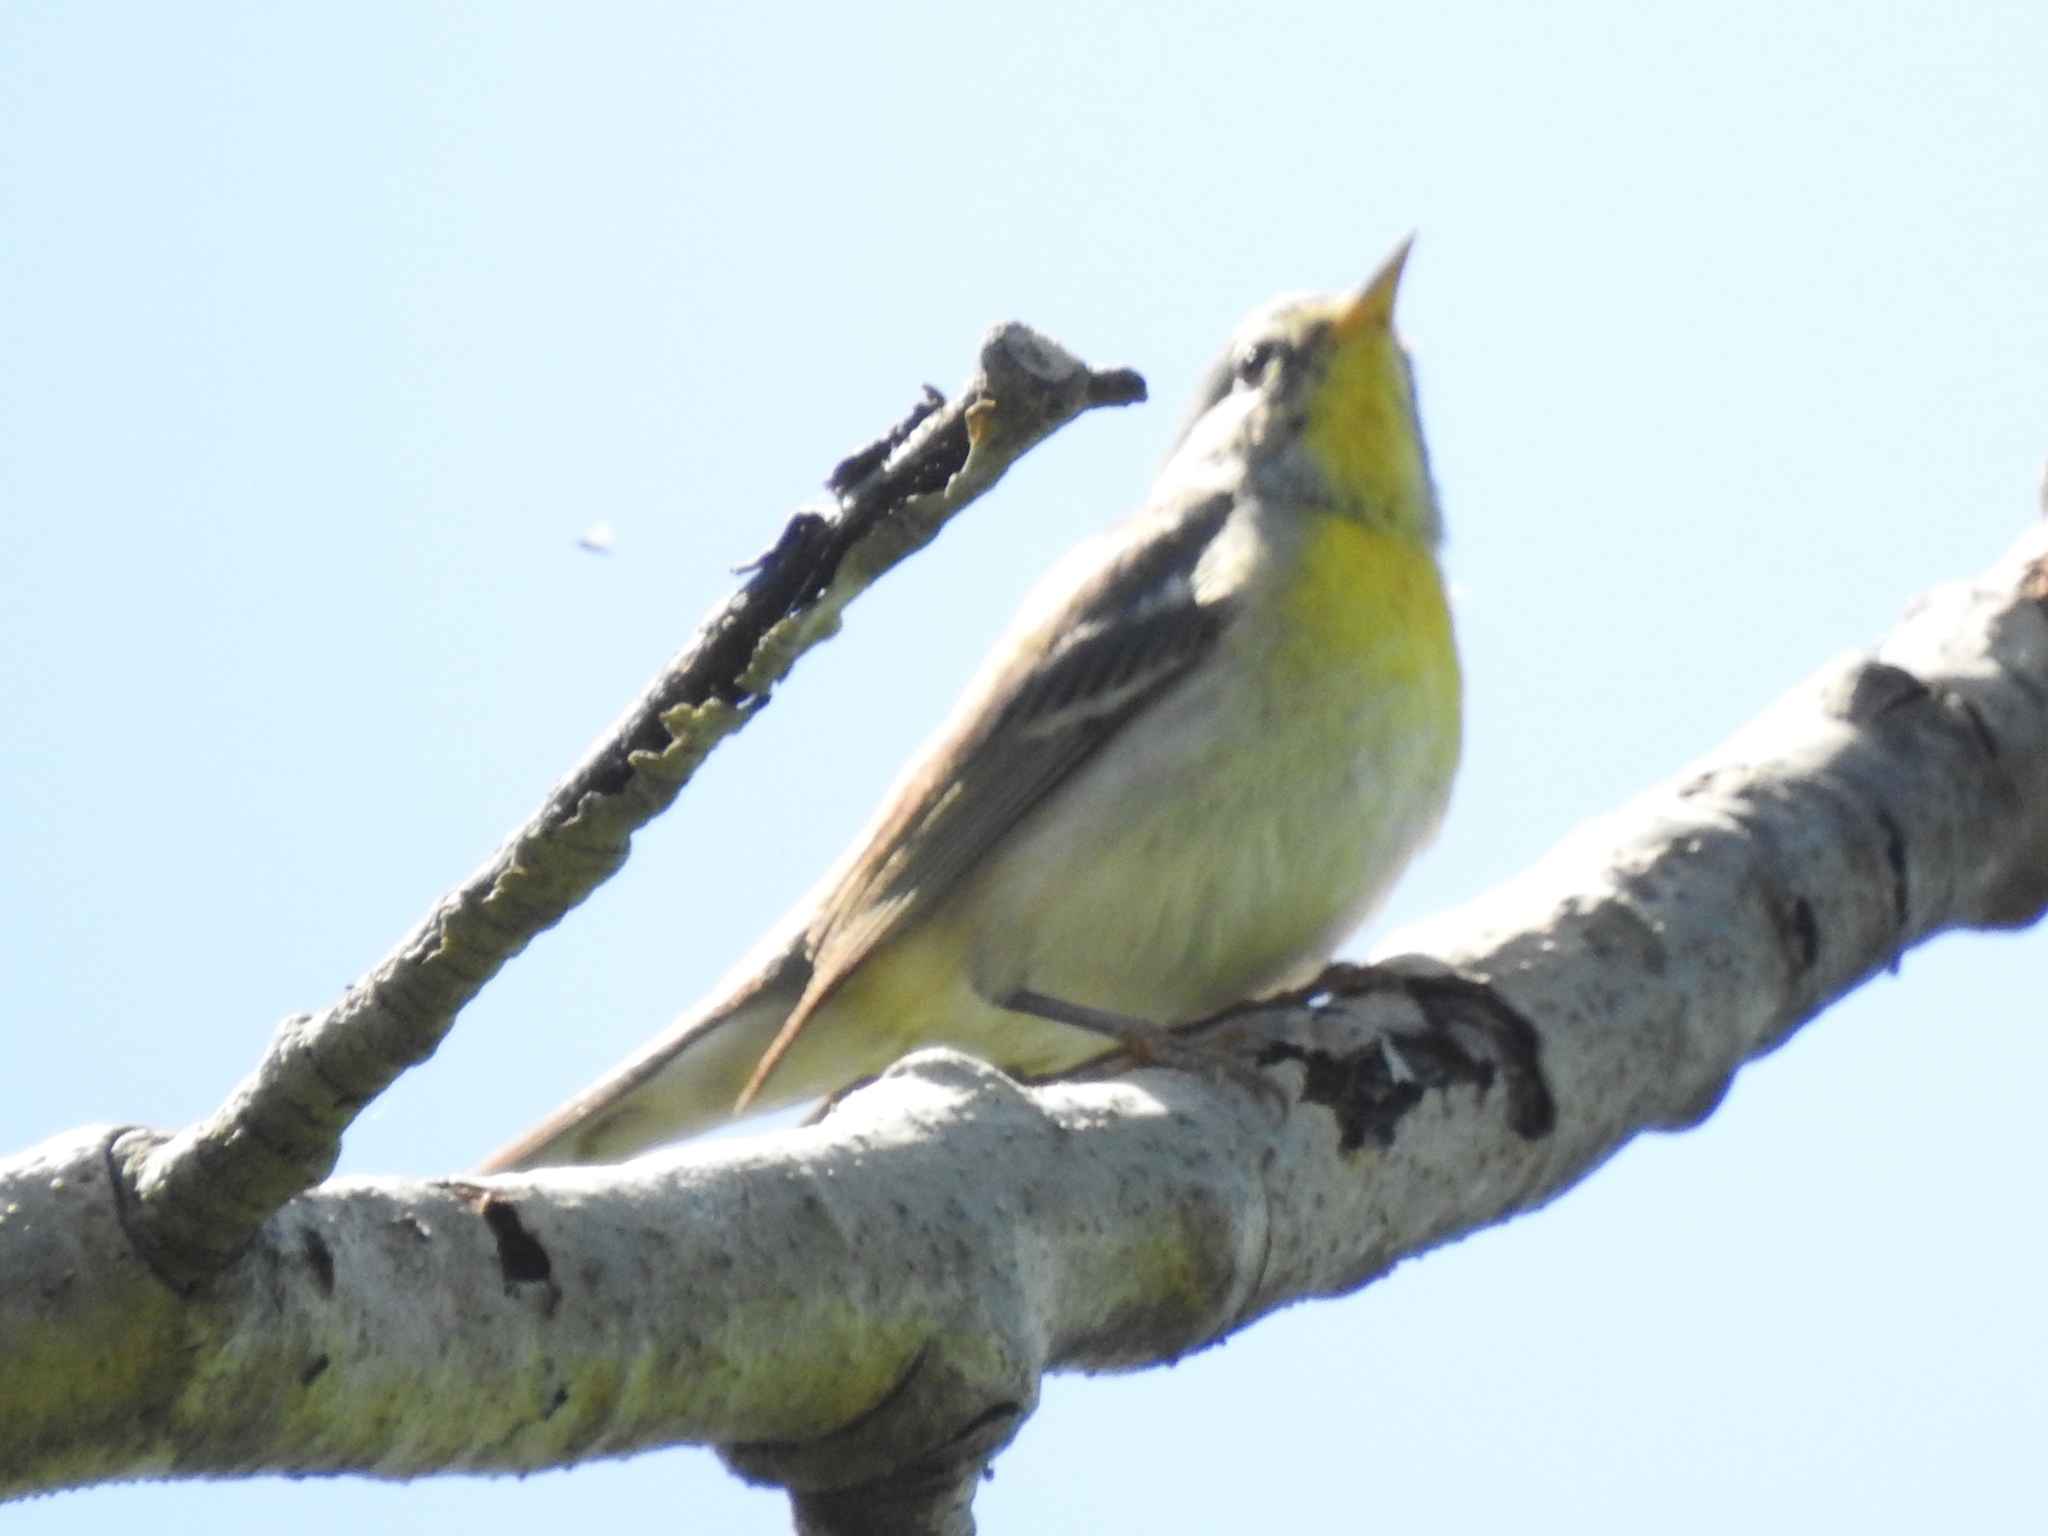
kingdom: Animalia
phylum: Chordata
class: Aves
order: Passeriformes
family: Parulidae
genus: Setophaga
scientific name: Setophaga americana
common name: Northern parula
